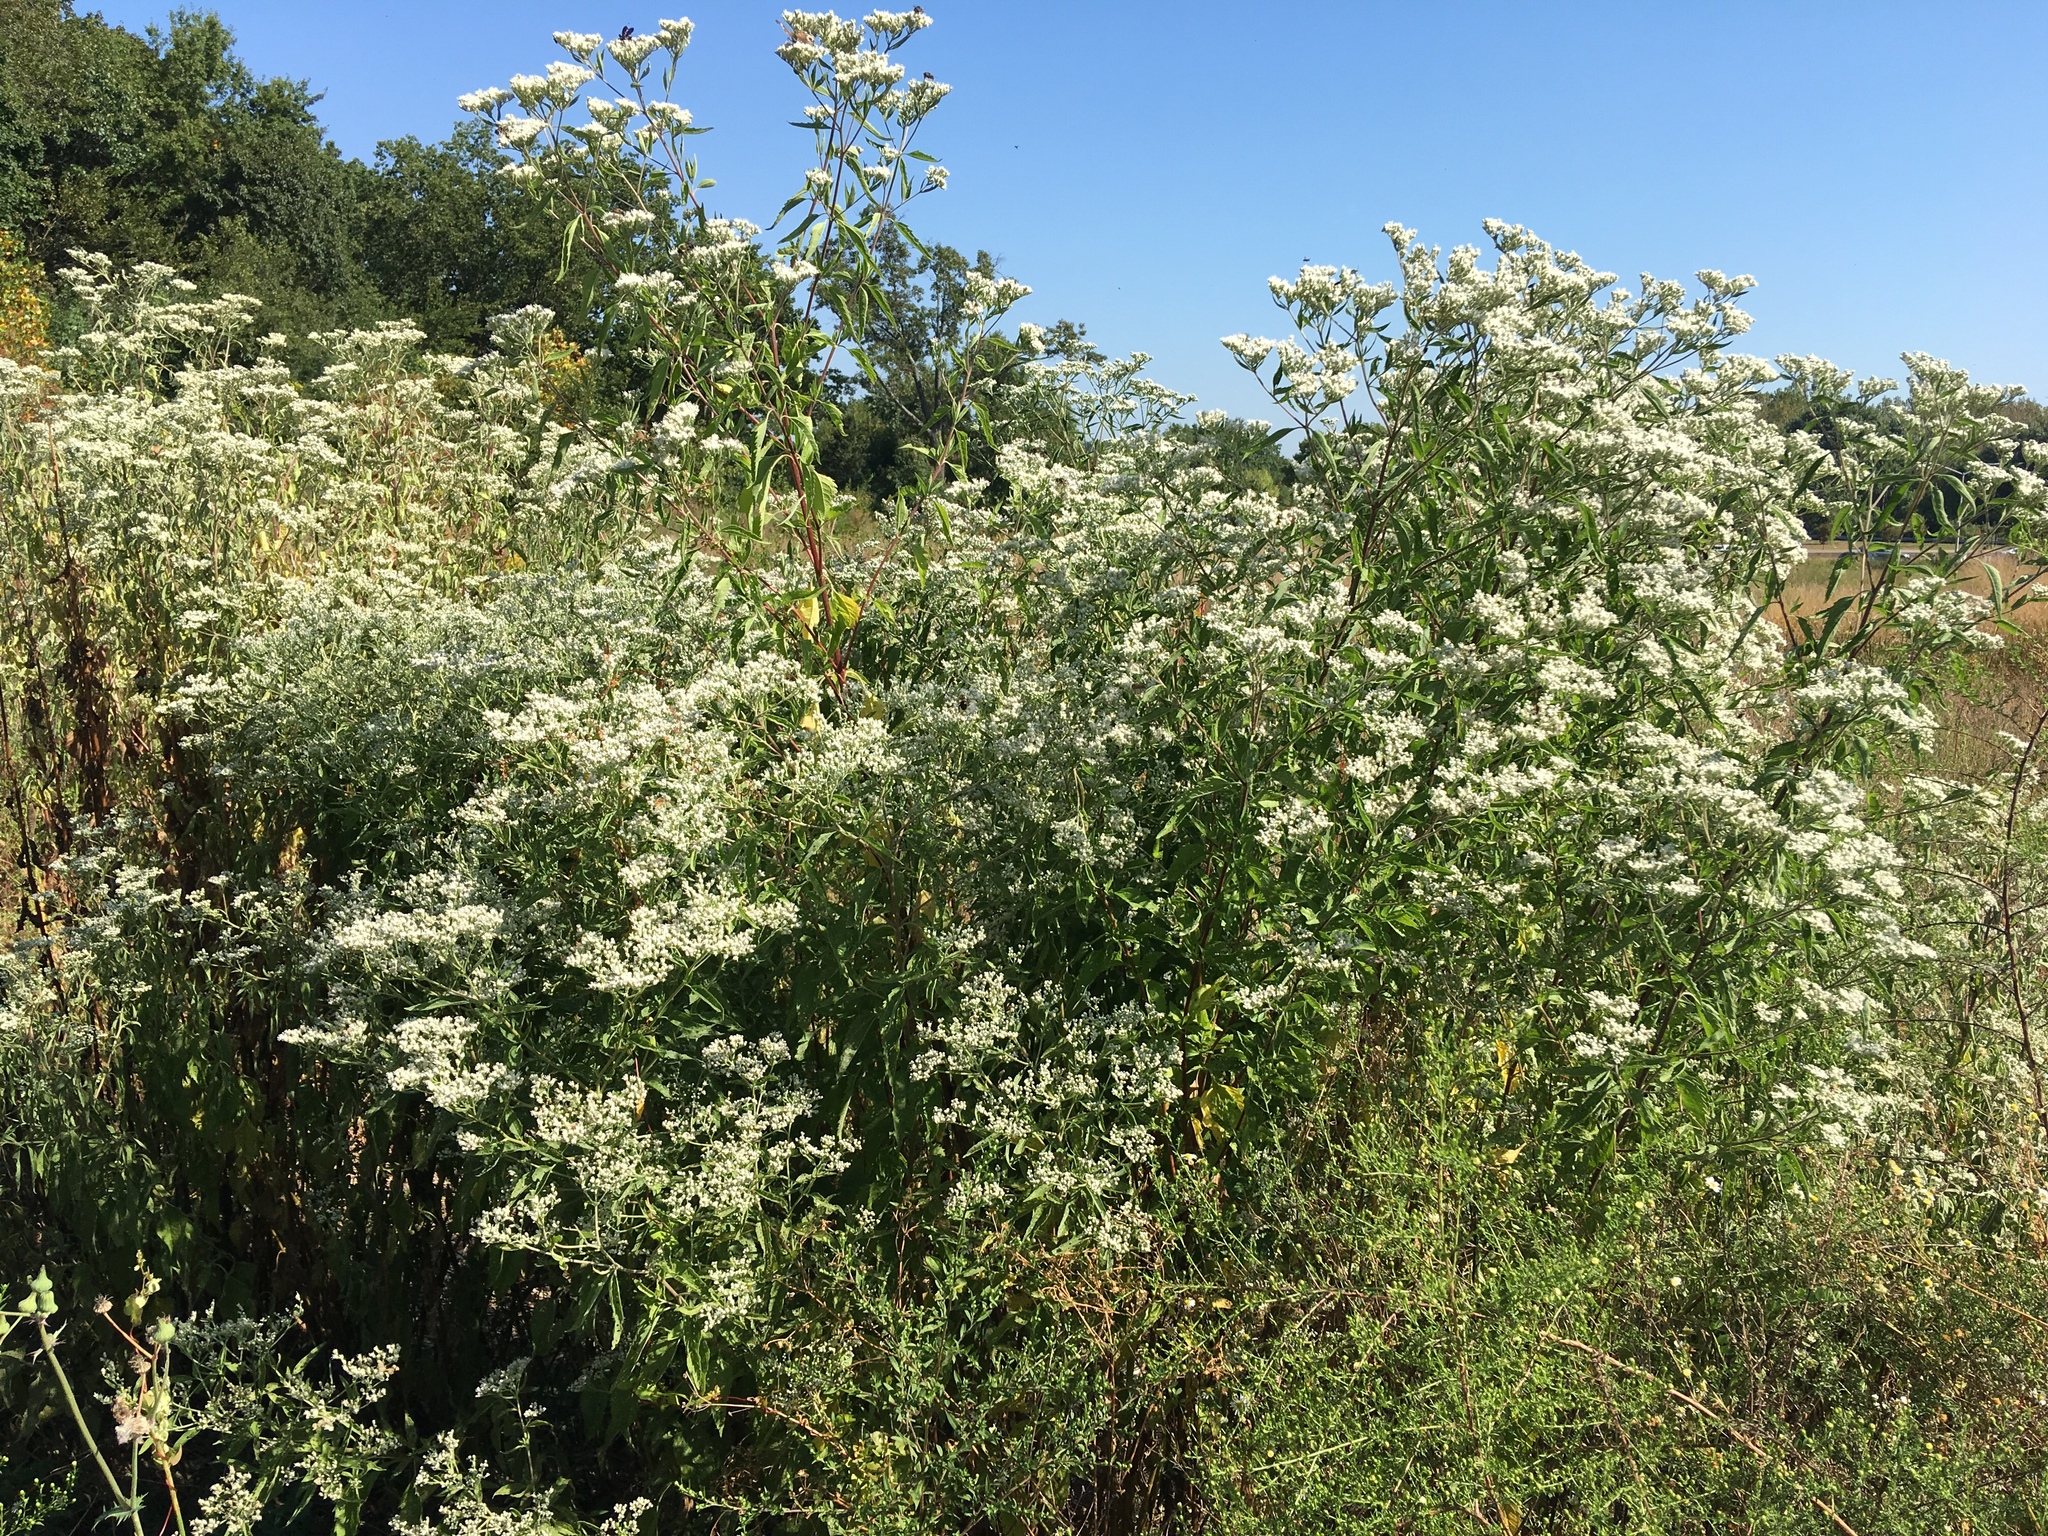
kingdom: Plantae
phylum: Tracheophyta
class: Magnoliopsida
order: Asterales
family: Asteraceae
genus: Eupatorium
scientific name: Eupatorium serotinum
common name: Late boneset
